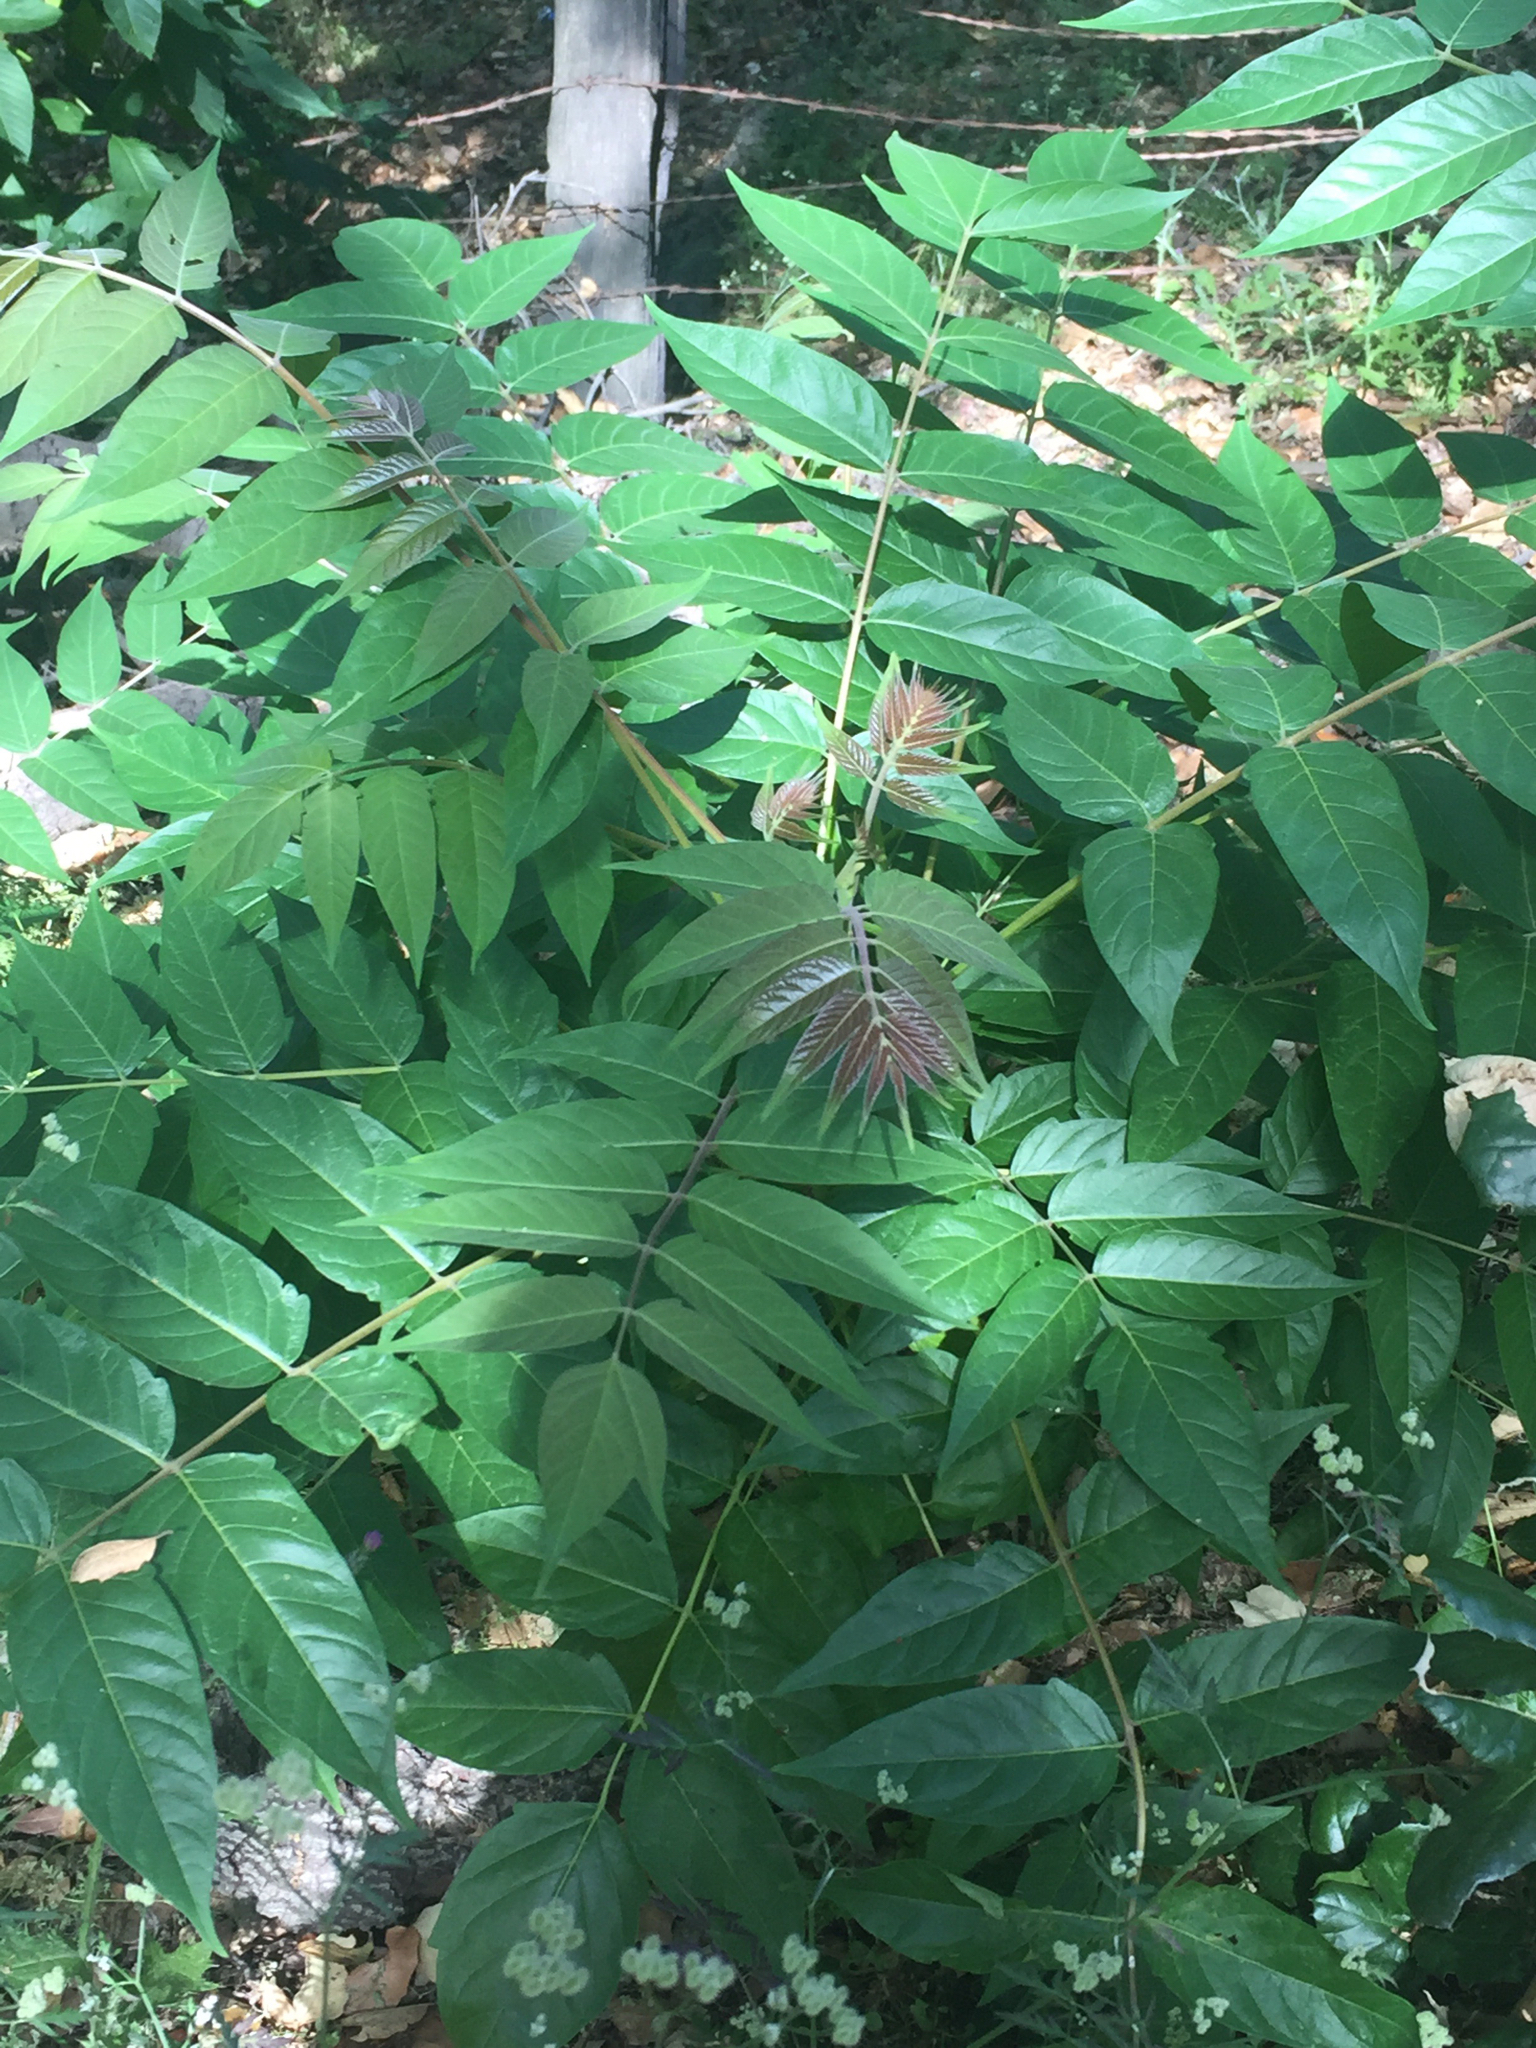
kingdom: Plantae
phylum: Tracheophyta
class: Magnoliopsida
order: Sapindales
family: Simaroubaceae
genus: Ailanthus
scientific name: Ailanthus altissima
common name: Tree-of-heaven
